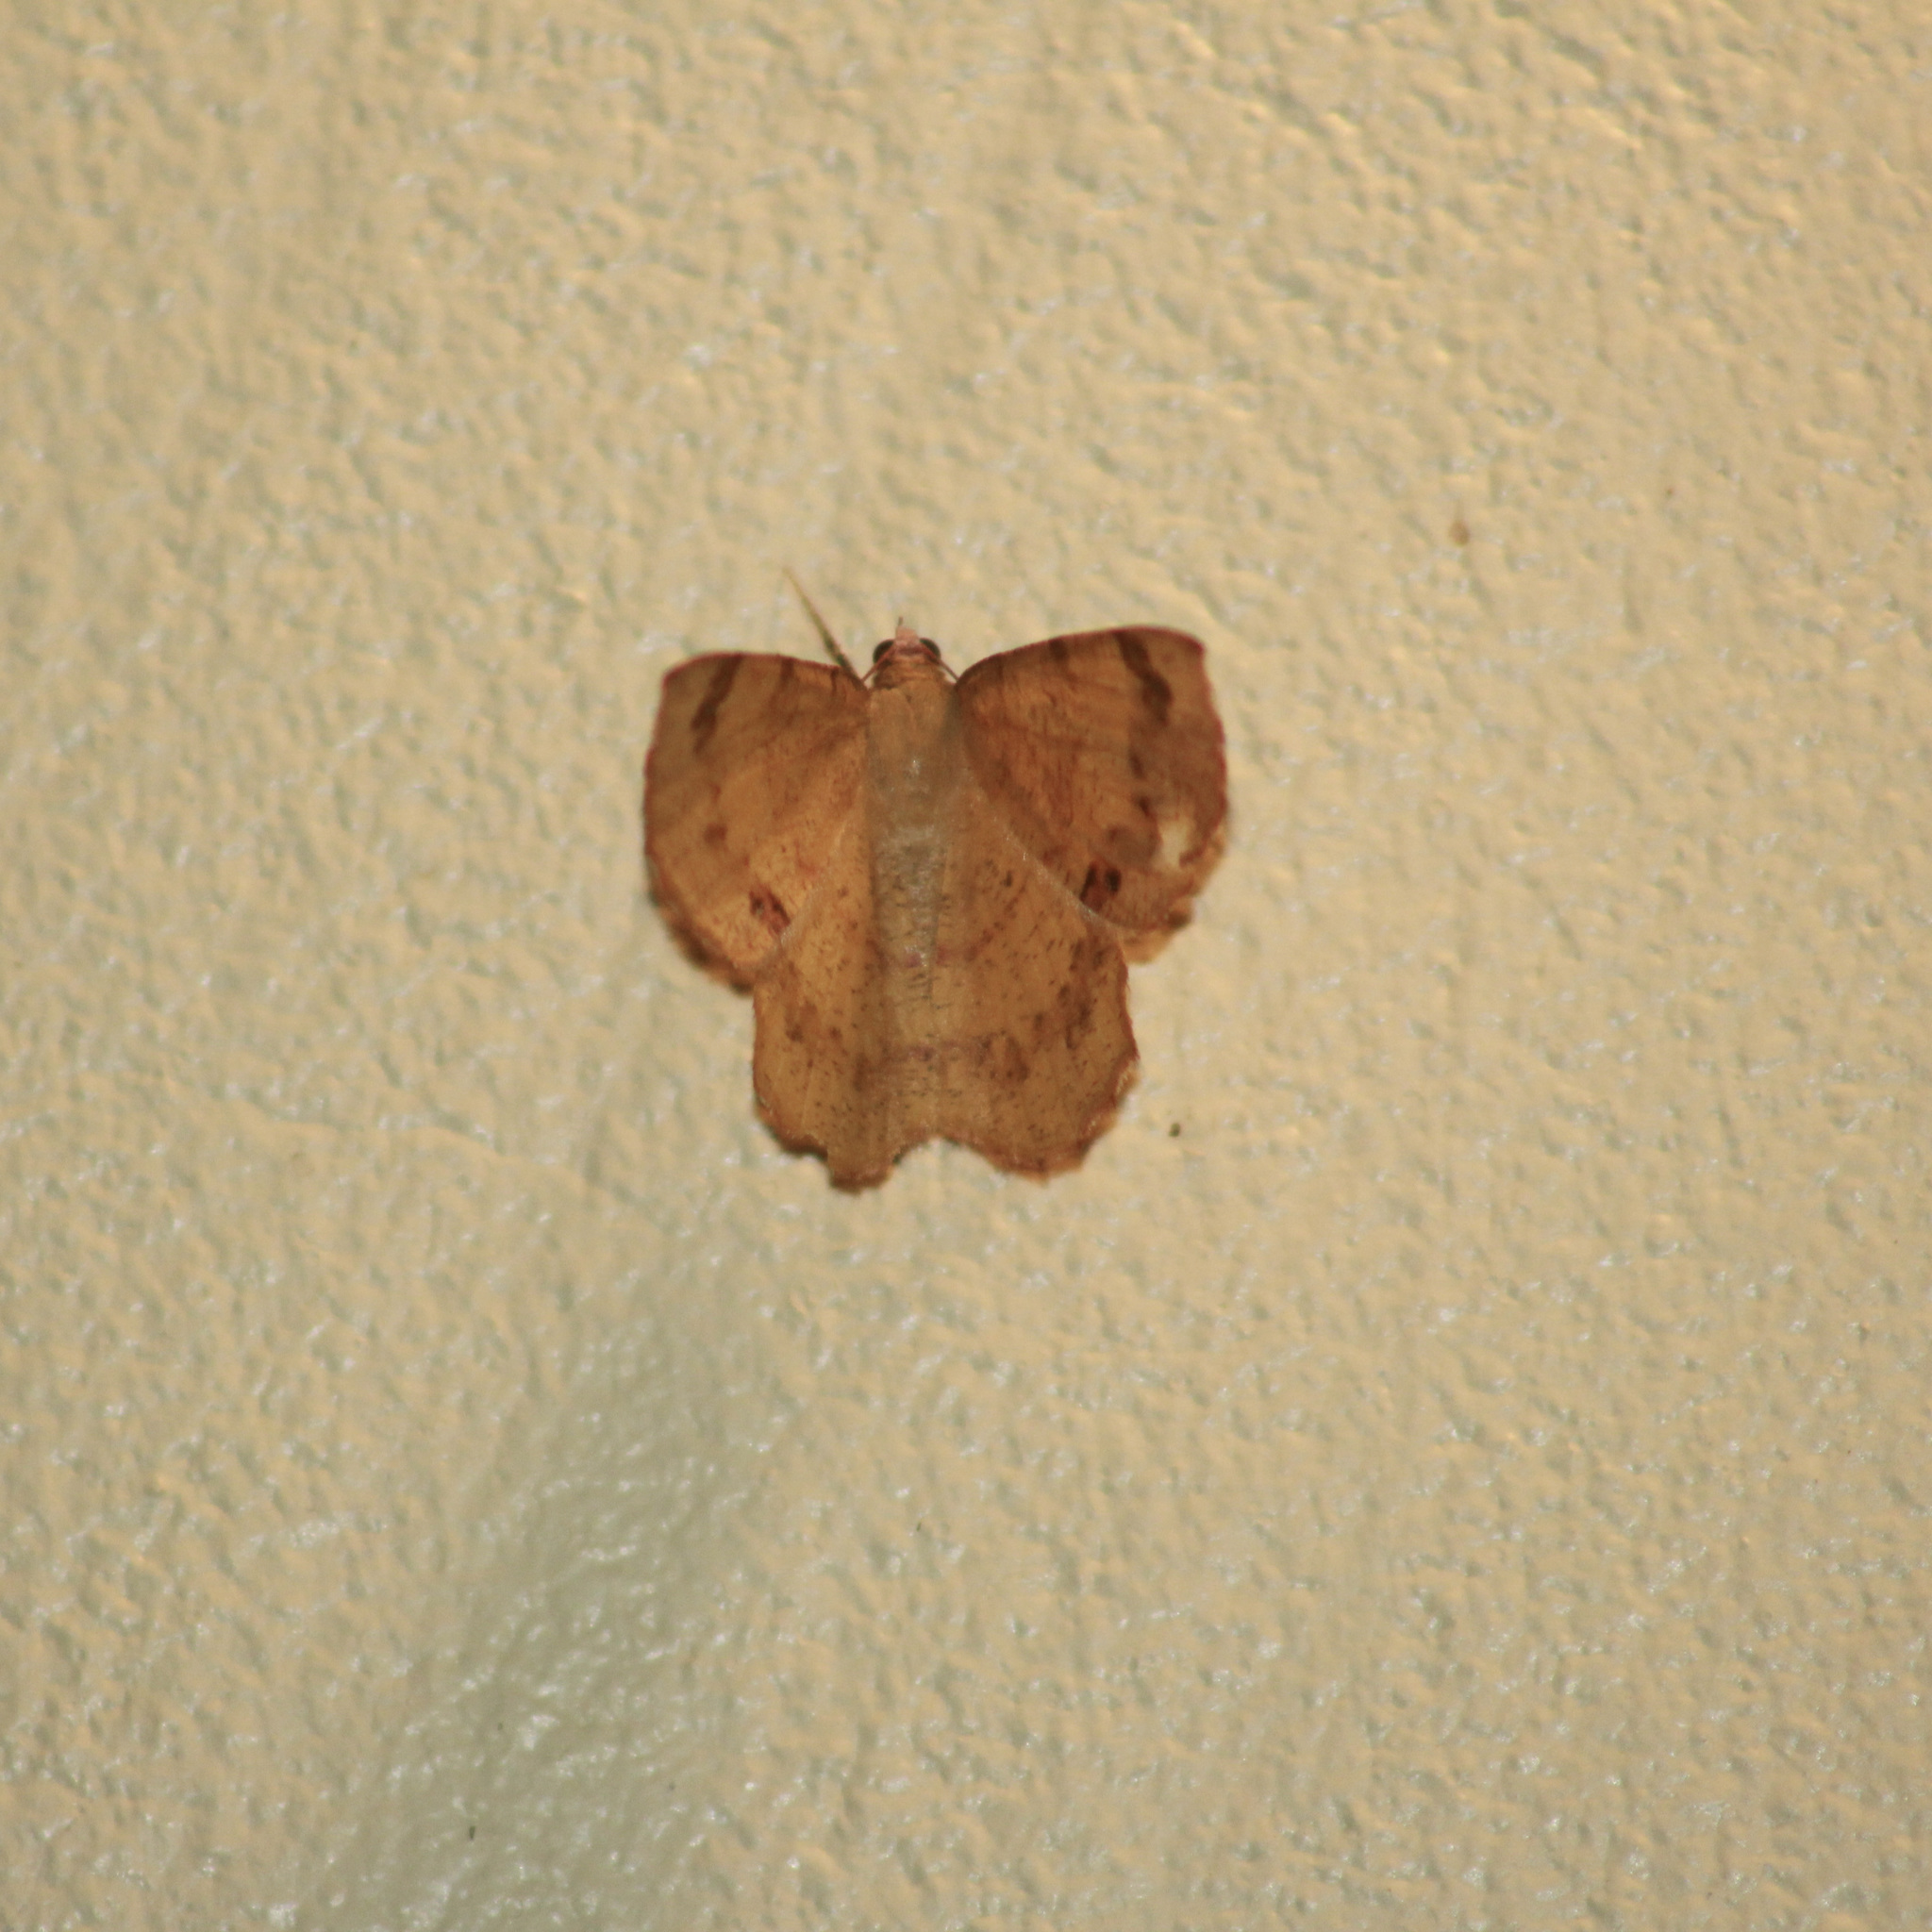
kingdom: Animalia
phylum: Arthropoda
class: Insecta
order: Lepidoptera
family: Geometridae
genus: Erastria
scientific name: Erastria decrepitaria
